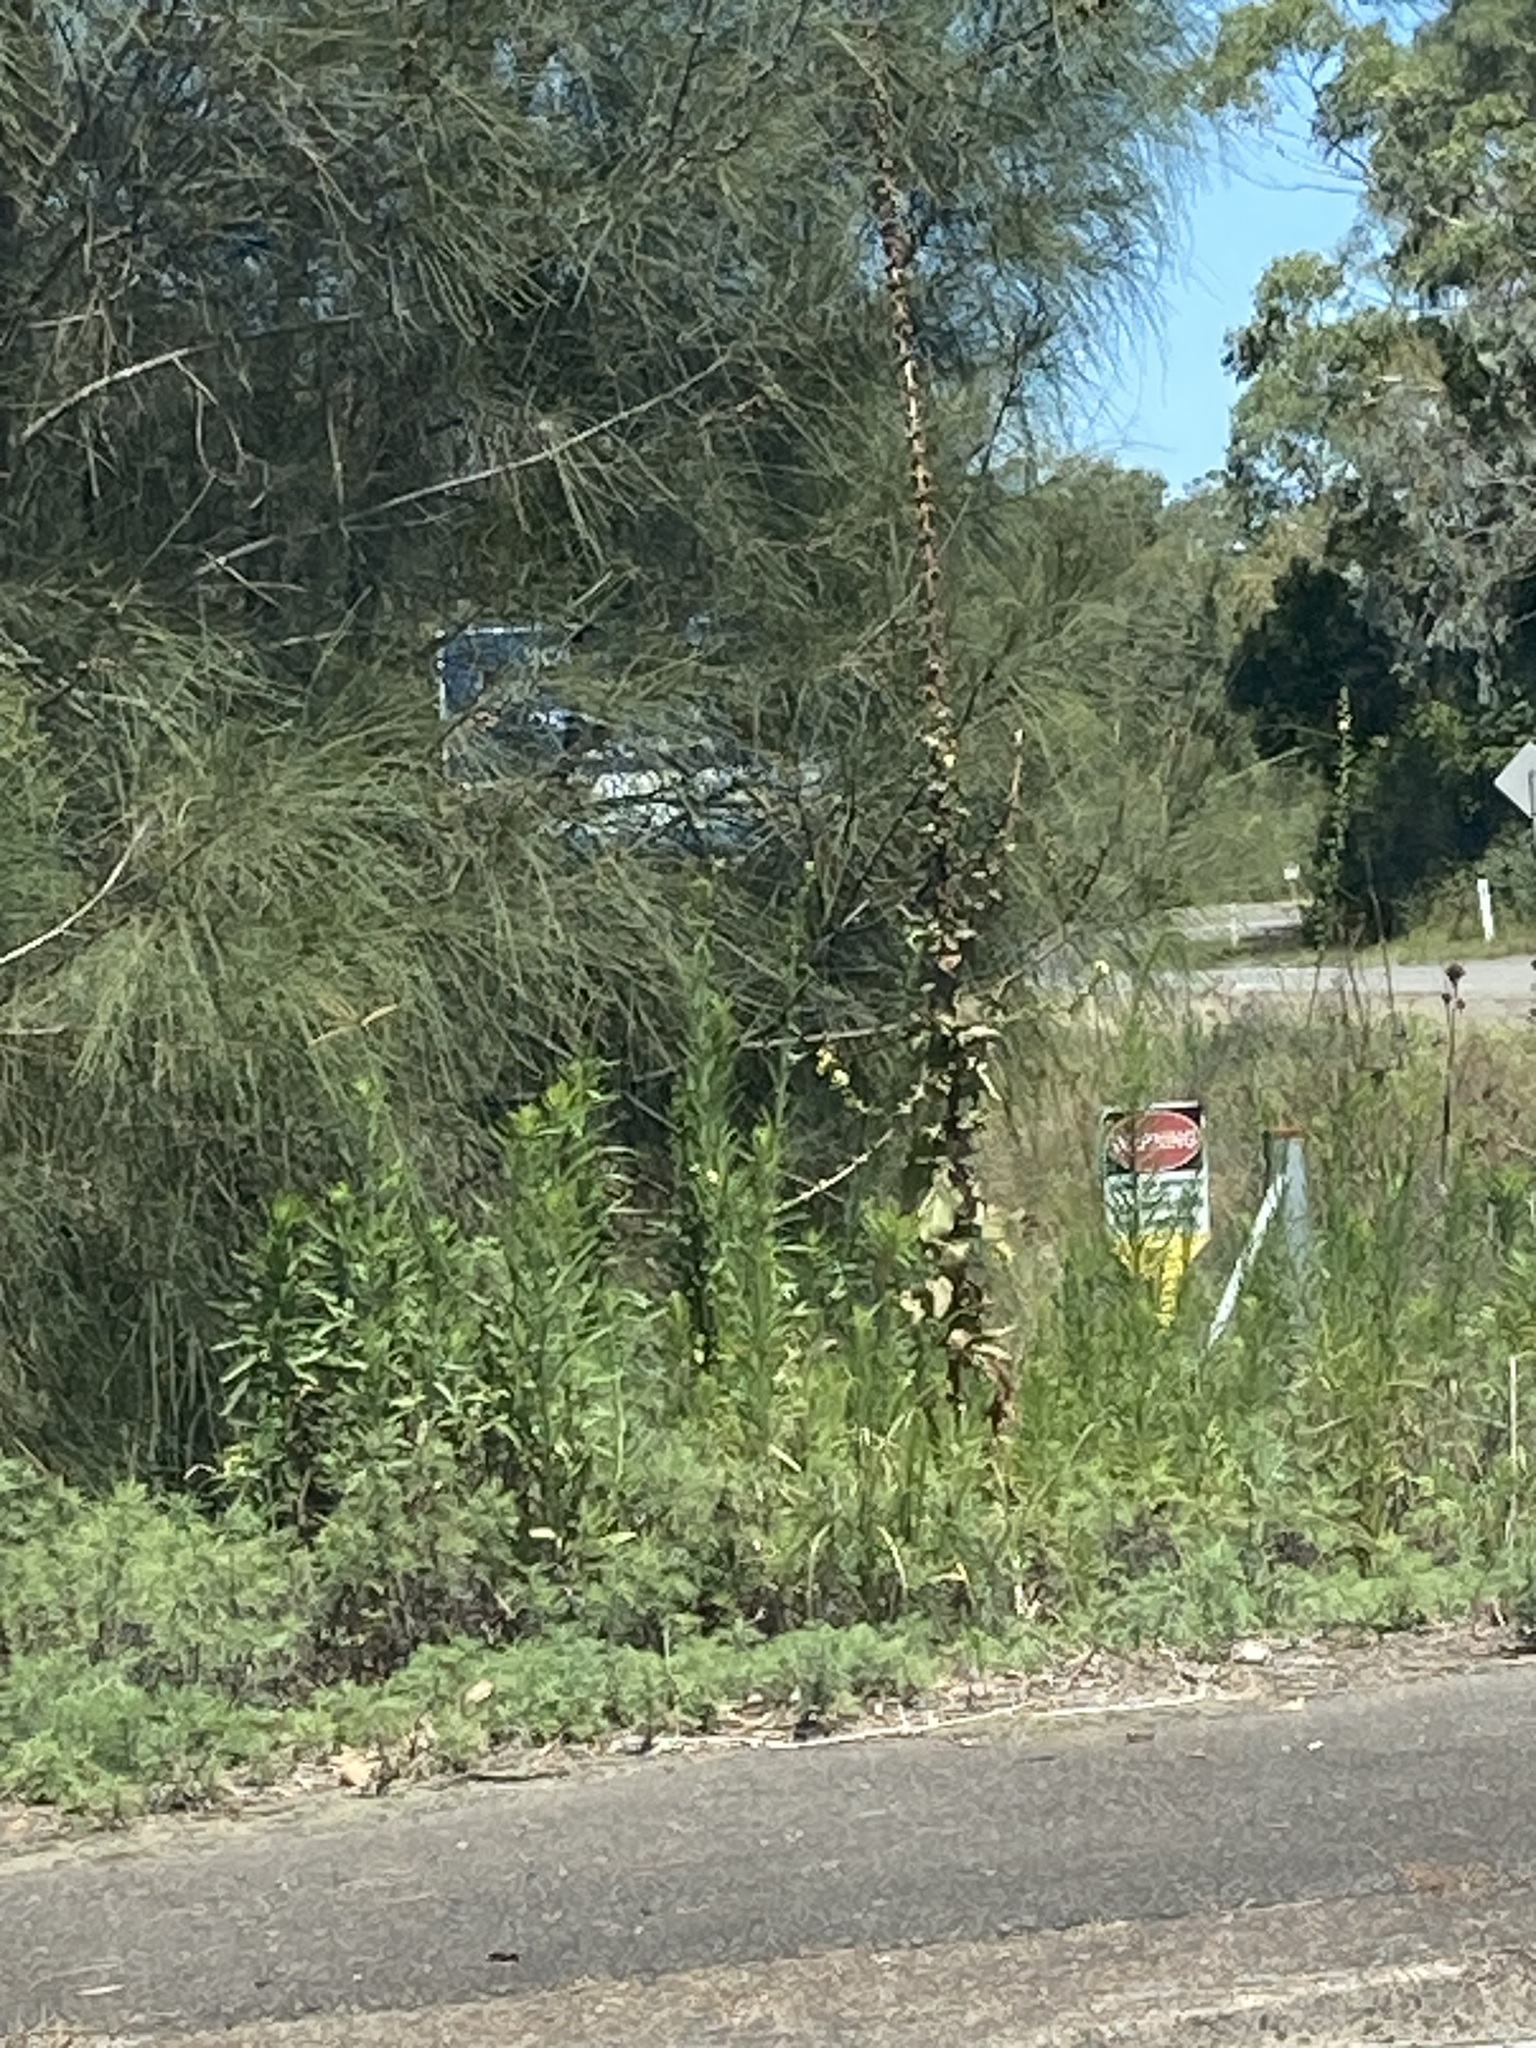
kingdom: Plantae
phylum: Tracheophyta
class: Magnoliopsida
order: Lamiales
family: Scrophulariaceae
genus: Verbascum
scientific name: Verbascum virgatum
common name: Twiggy mullein
